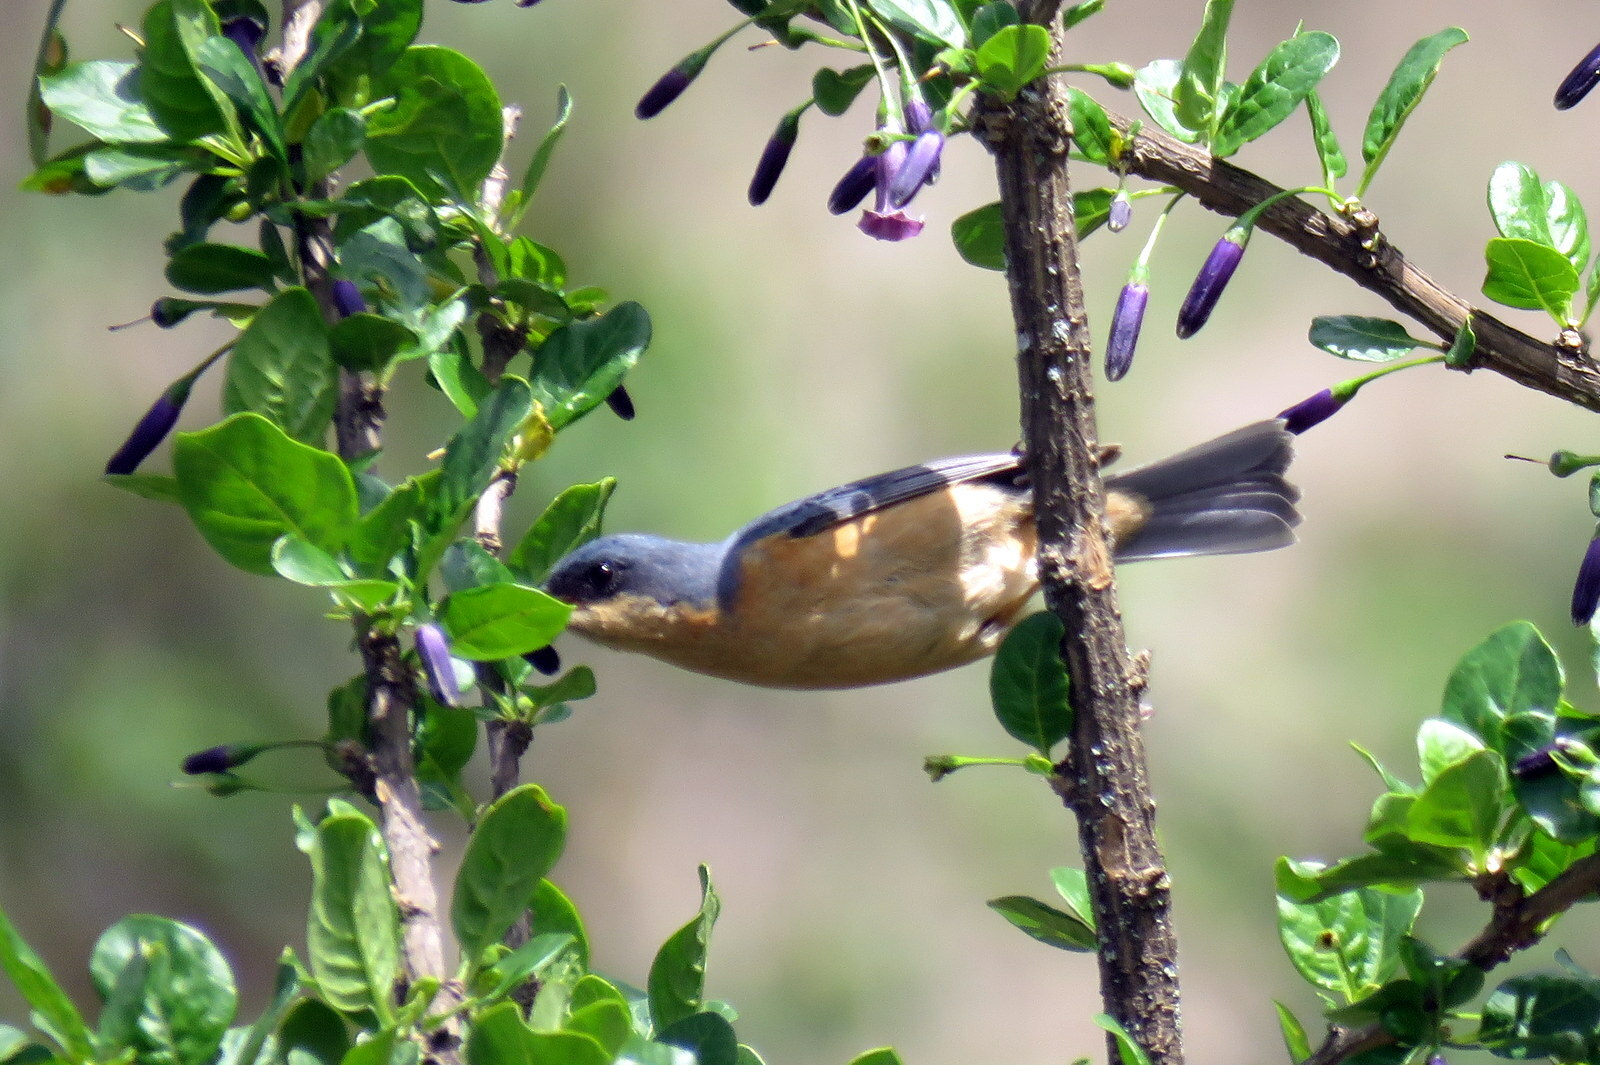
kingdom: Animalia
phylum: Chordata
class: Aves
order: Passeriformes
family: Thraupidae
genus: Diglossa
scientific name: Diglossa sittoides
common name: Rusty flowerpiercer
